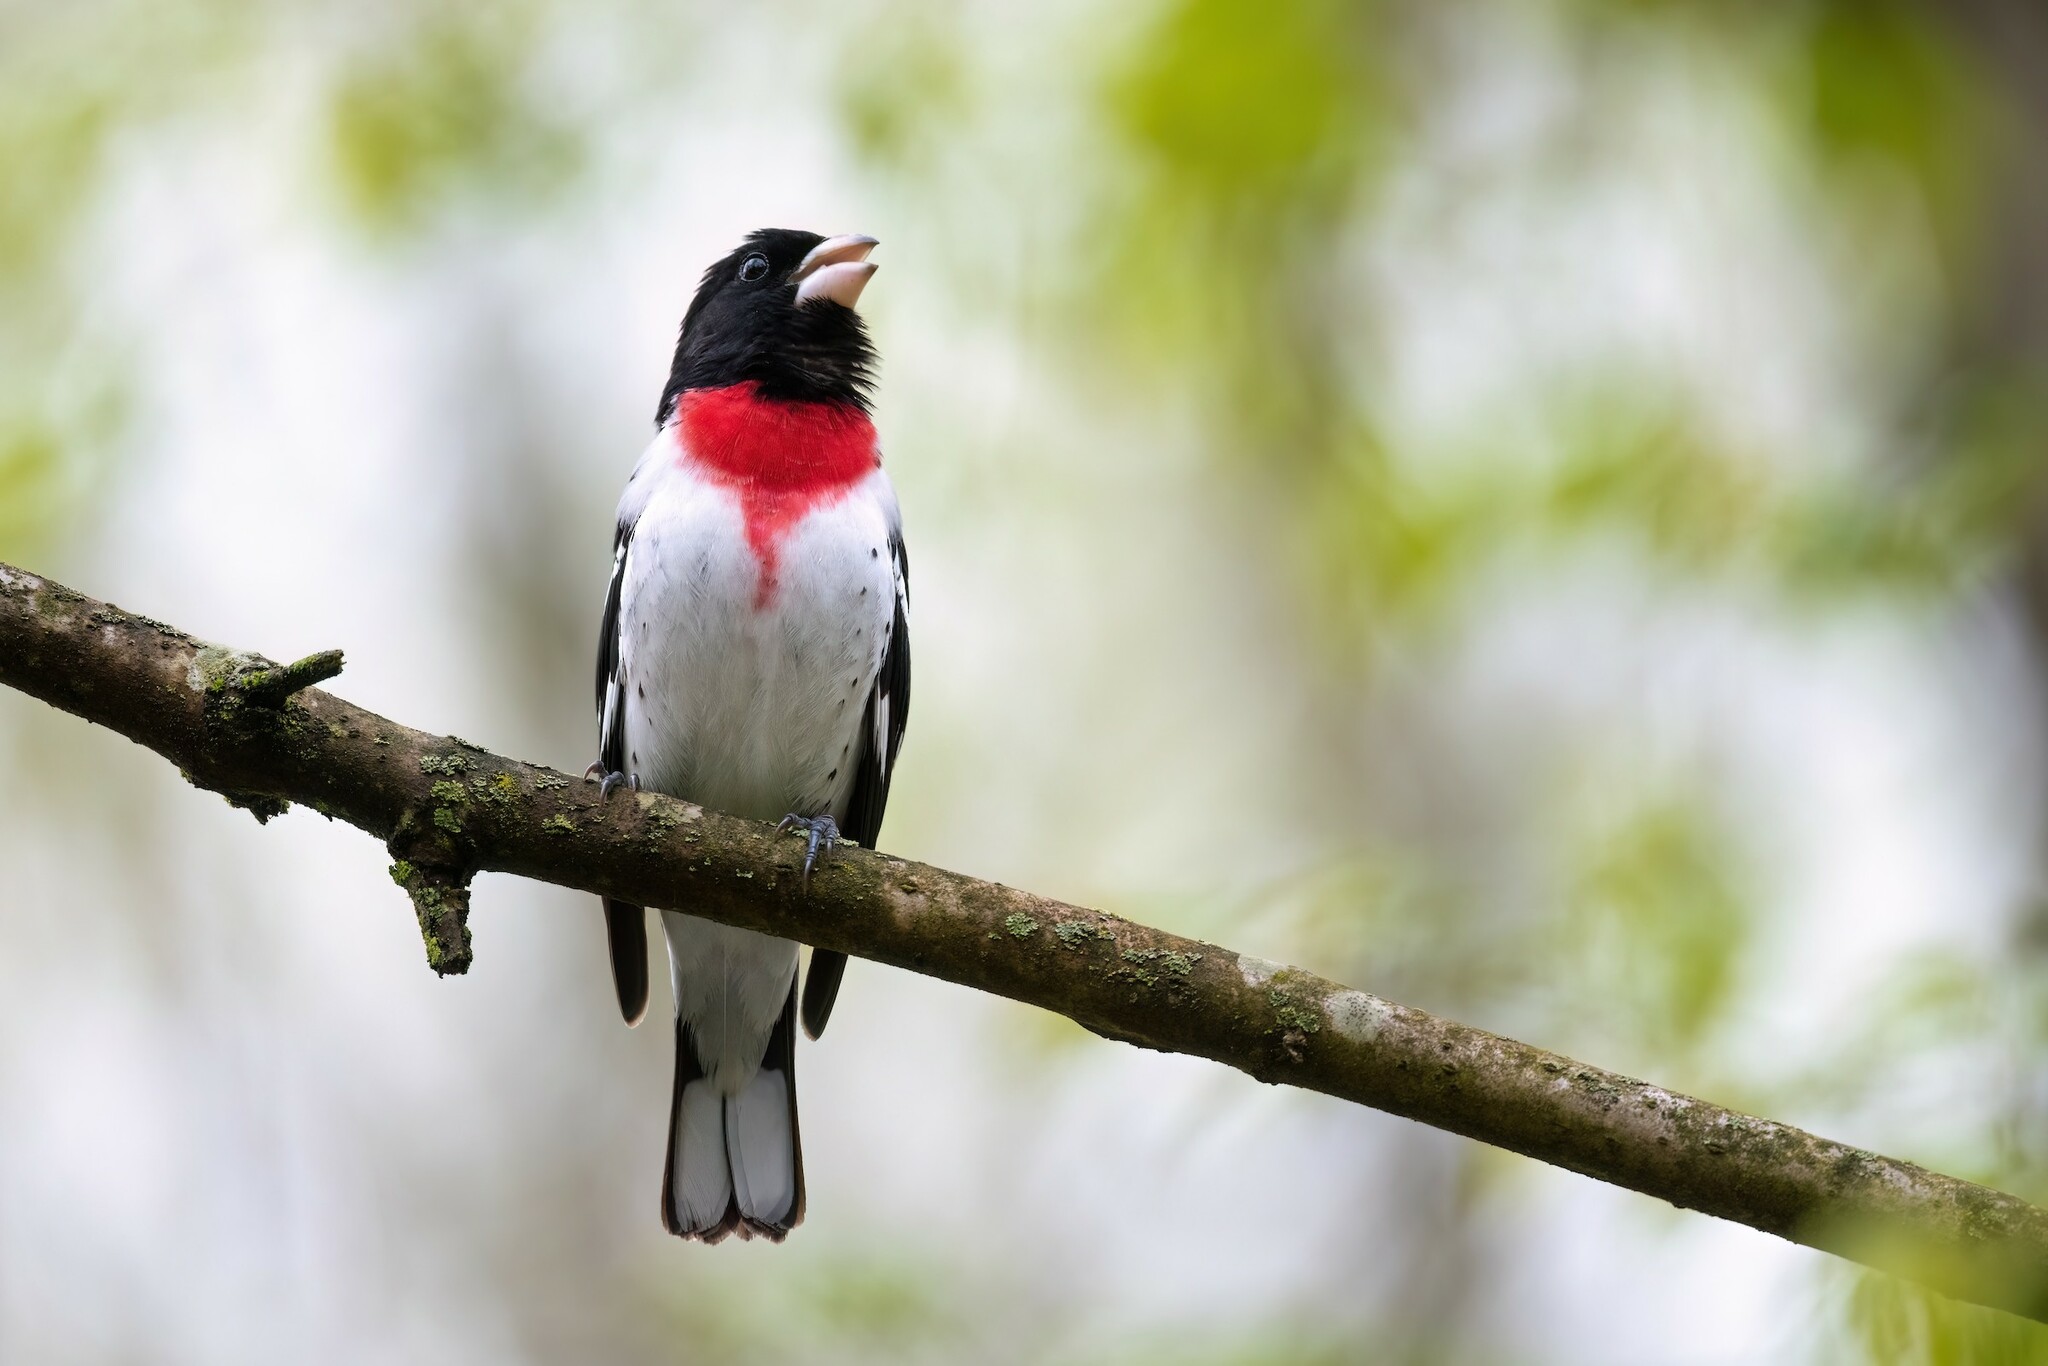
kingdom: Animalia
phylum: Chordata
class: Aves
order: Passeriformes
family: Cardinalidae
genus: Pheucticus
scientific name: Pheucticus ludovicianus
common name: Rose-breasted grosbeak
